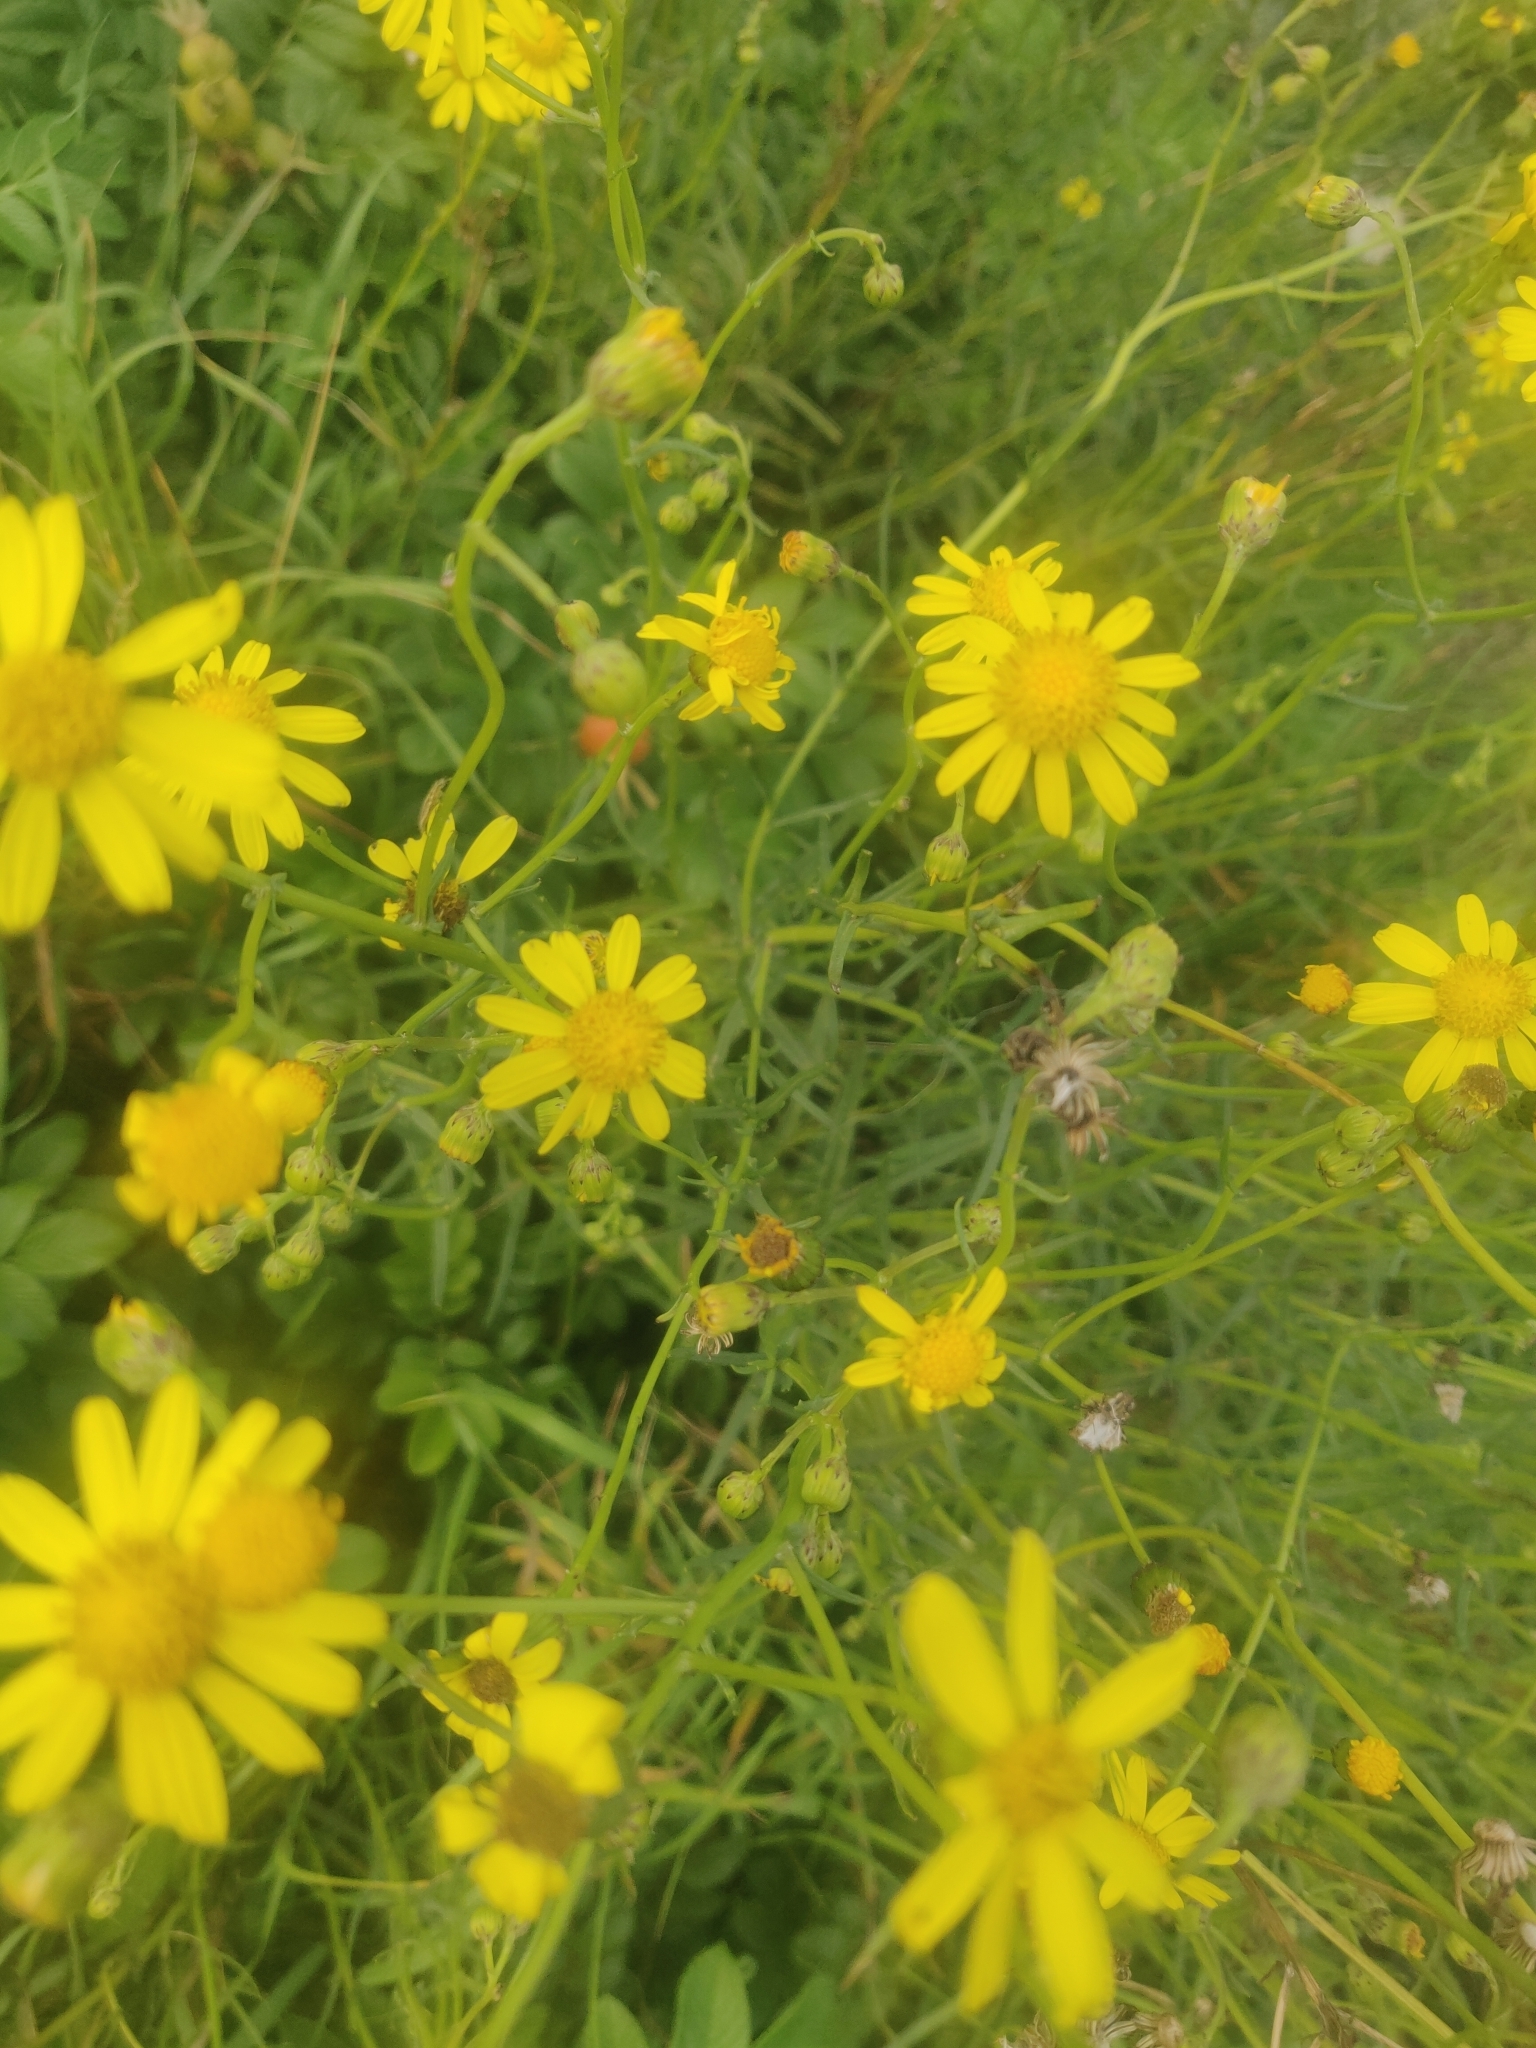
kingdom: Plantae
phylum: Tracheophyta
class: Magnoliopsida
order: Asterales
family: Asteraceae
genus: Senecio
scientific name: Senecio inaequidens
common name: Narrow-leaved ragwort
